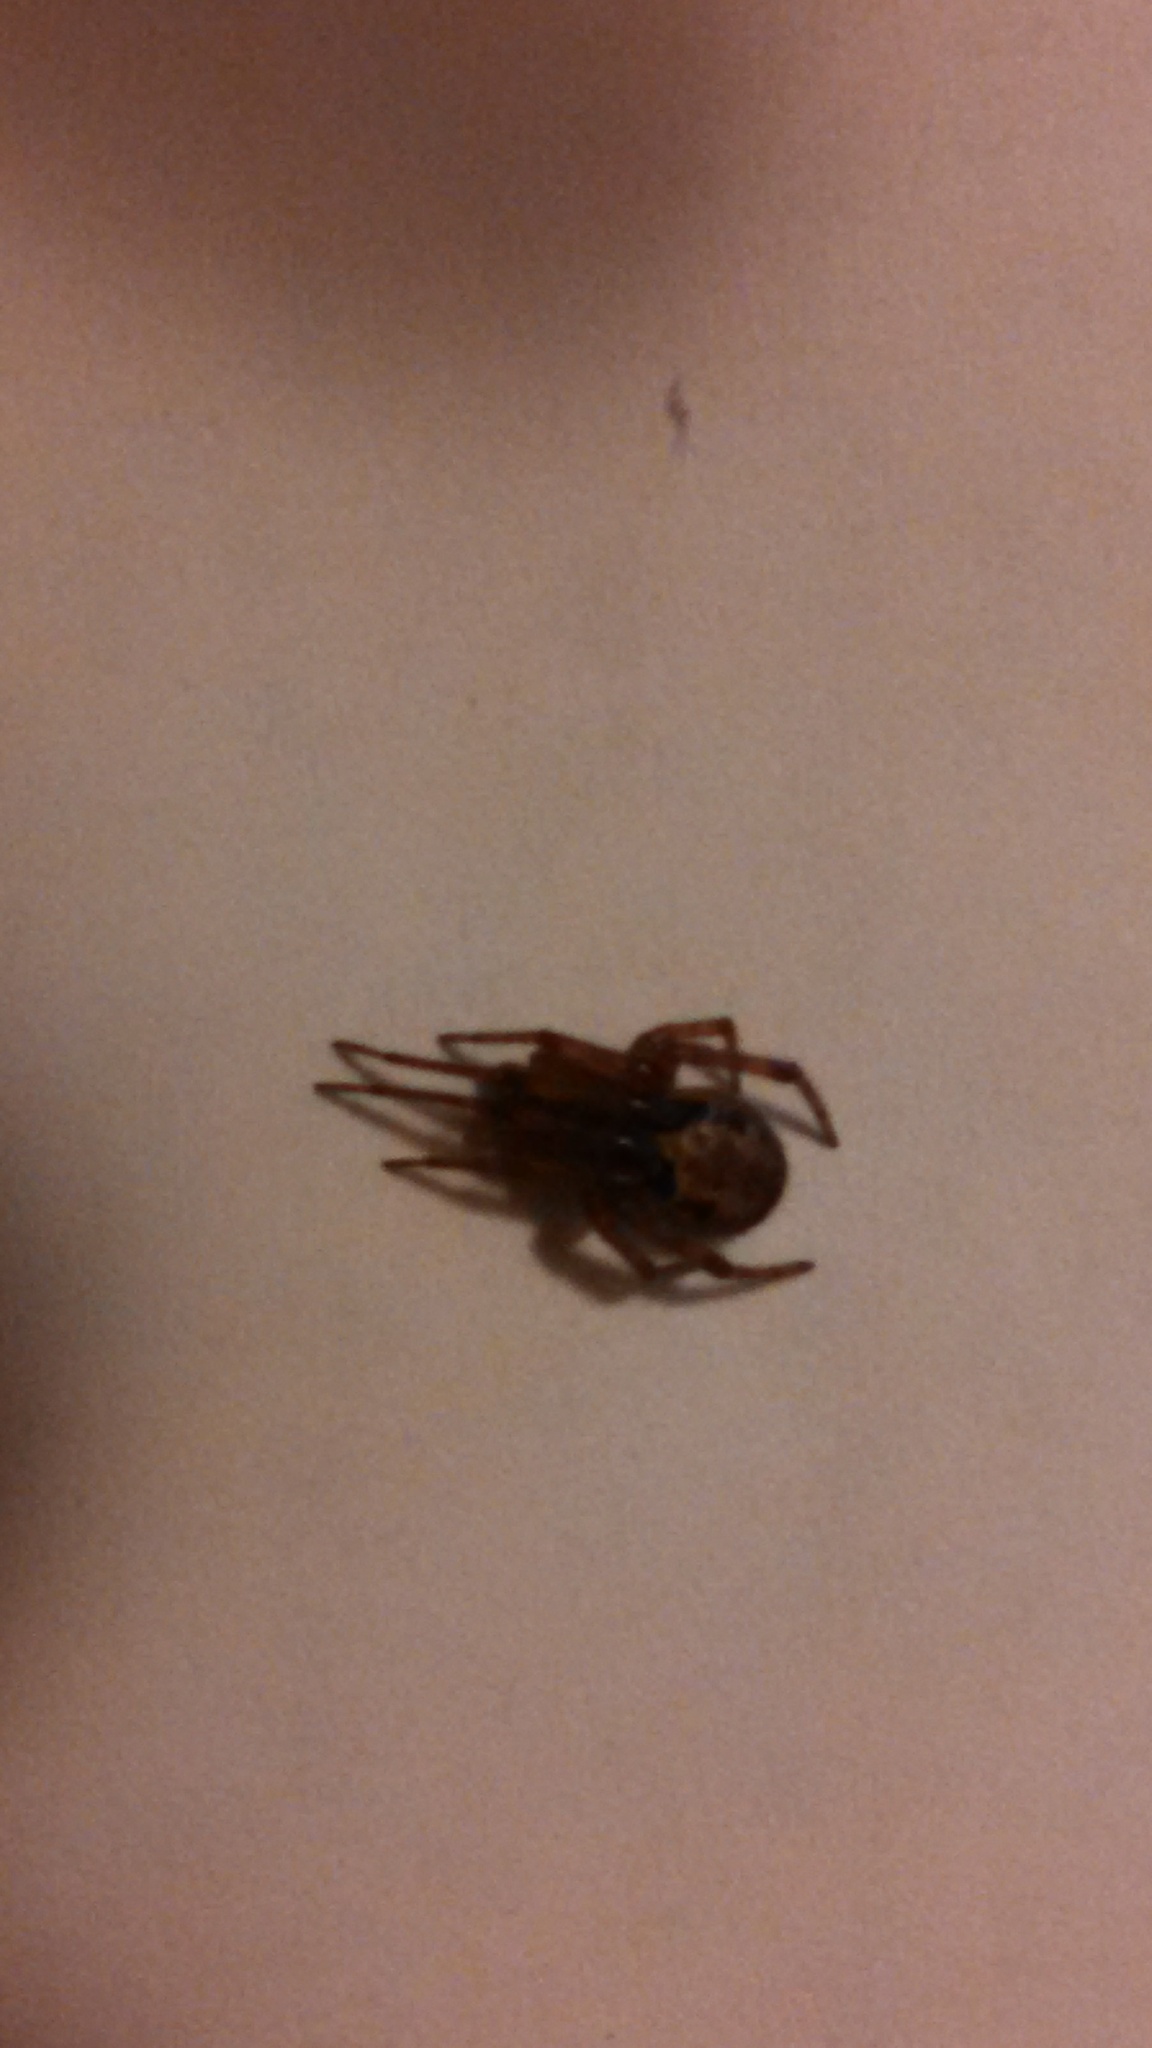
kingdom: Animalia
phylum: Arthropoda
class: Arachnida
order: Araneae
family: Theridiidae
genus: Steatoda
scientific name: Steatoda nobilis
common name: Cobweb weaver
